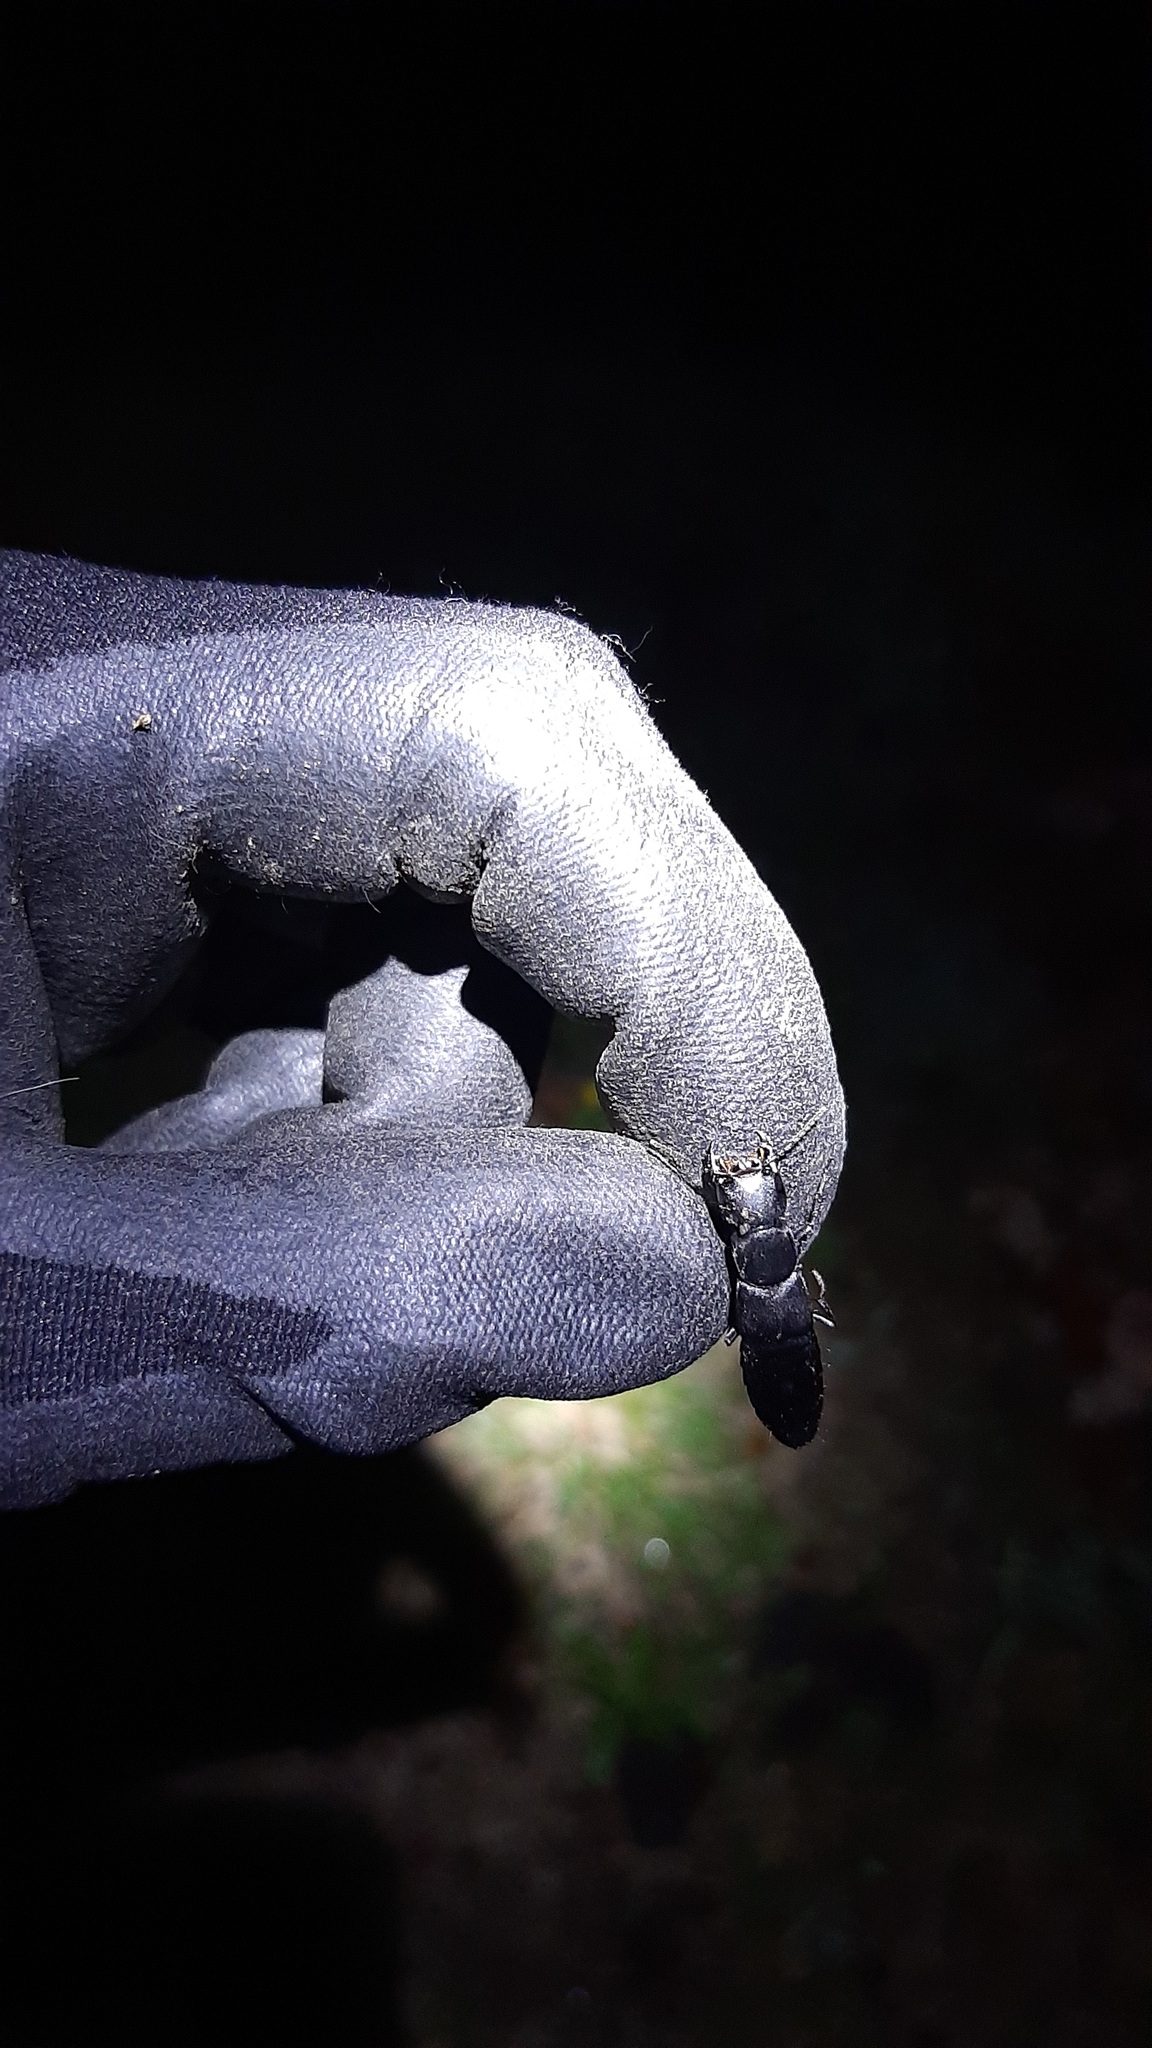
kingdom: Animalia
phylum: Arthropoda
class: Insecta
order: Coleoptera
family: Staphylinidae
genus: Ocypus
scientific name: Ocypus olens
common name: Devil's coach-horse
